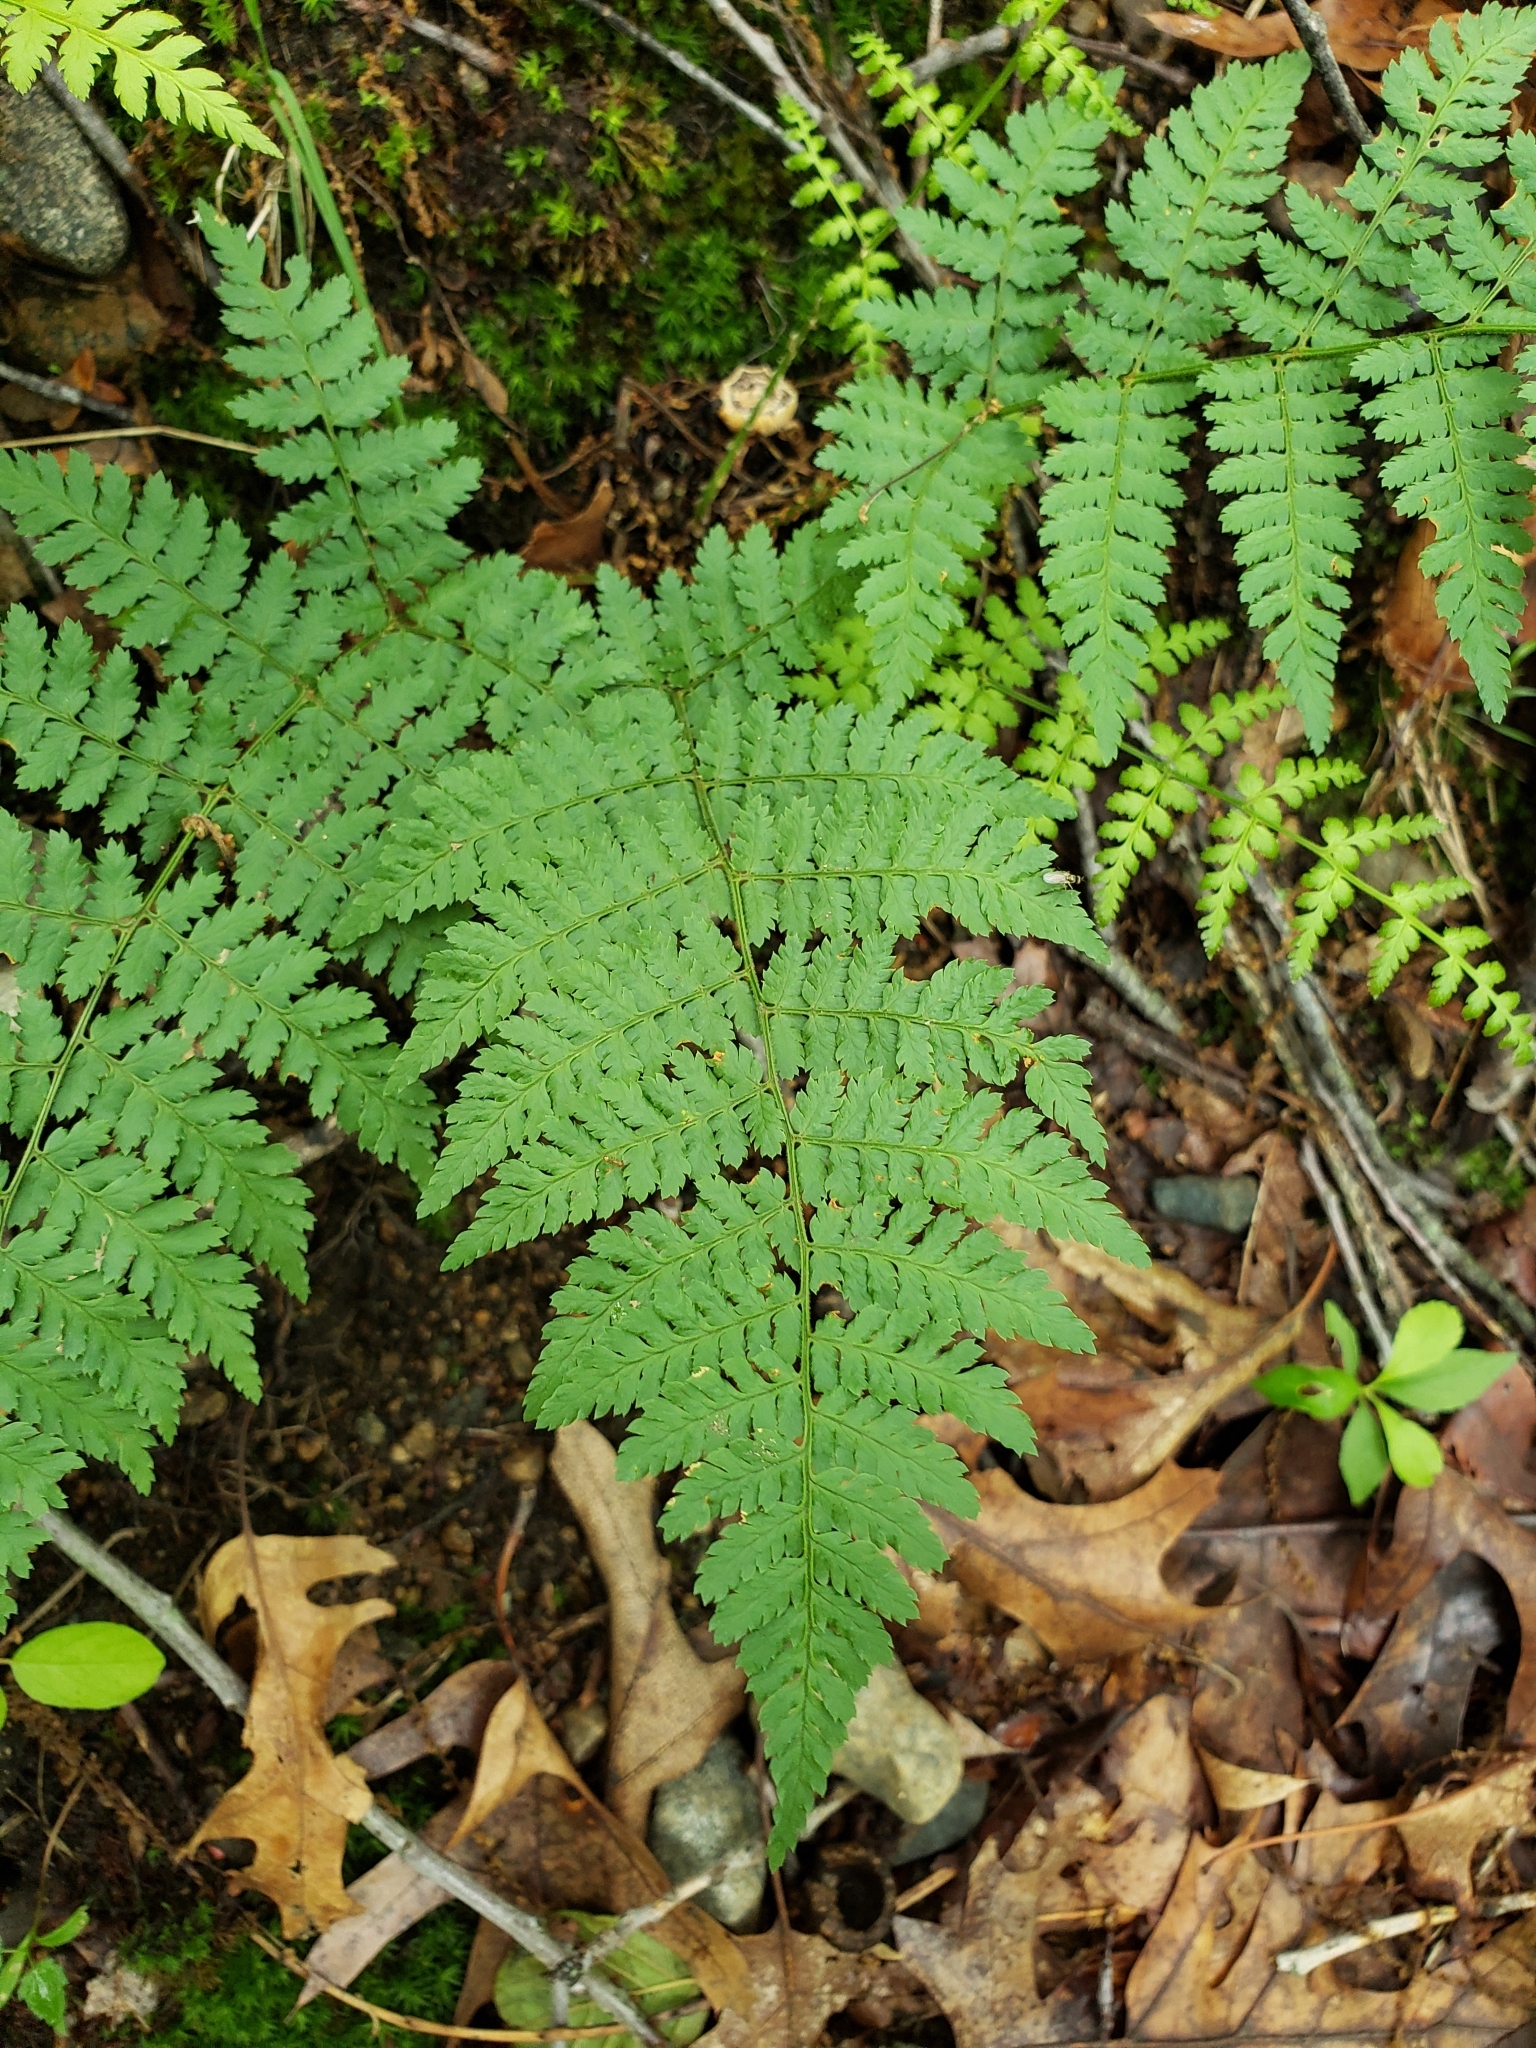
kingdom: Plantae
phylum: Tracheophyta
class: Polypodiopsida
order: Polypodiales
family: Dryopteridaceae
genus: Dryopteris
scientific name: Dryopteris intermedia
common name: Evergreen wood fern
